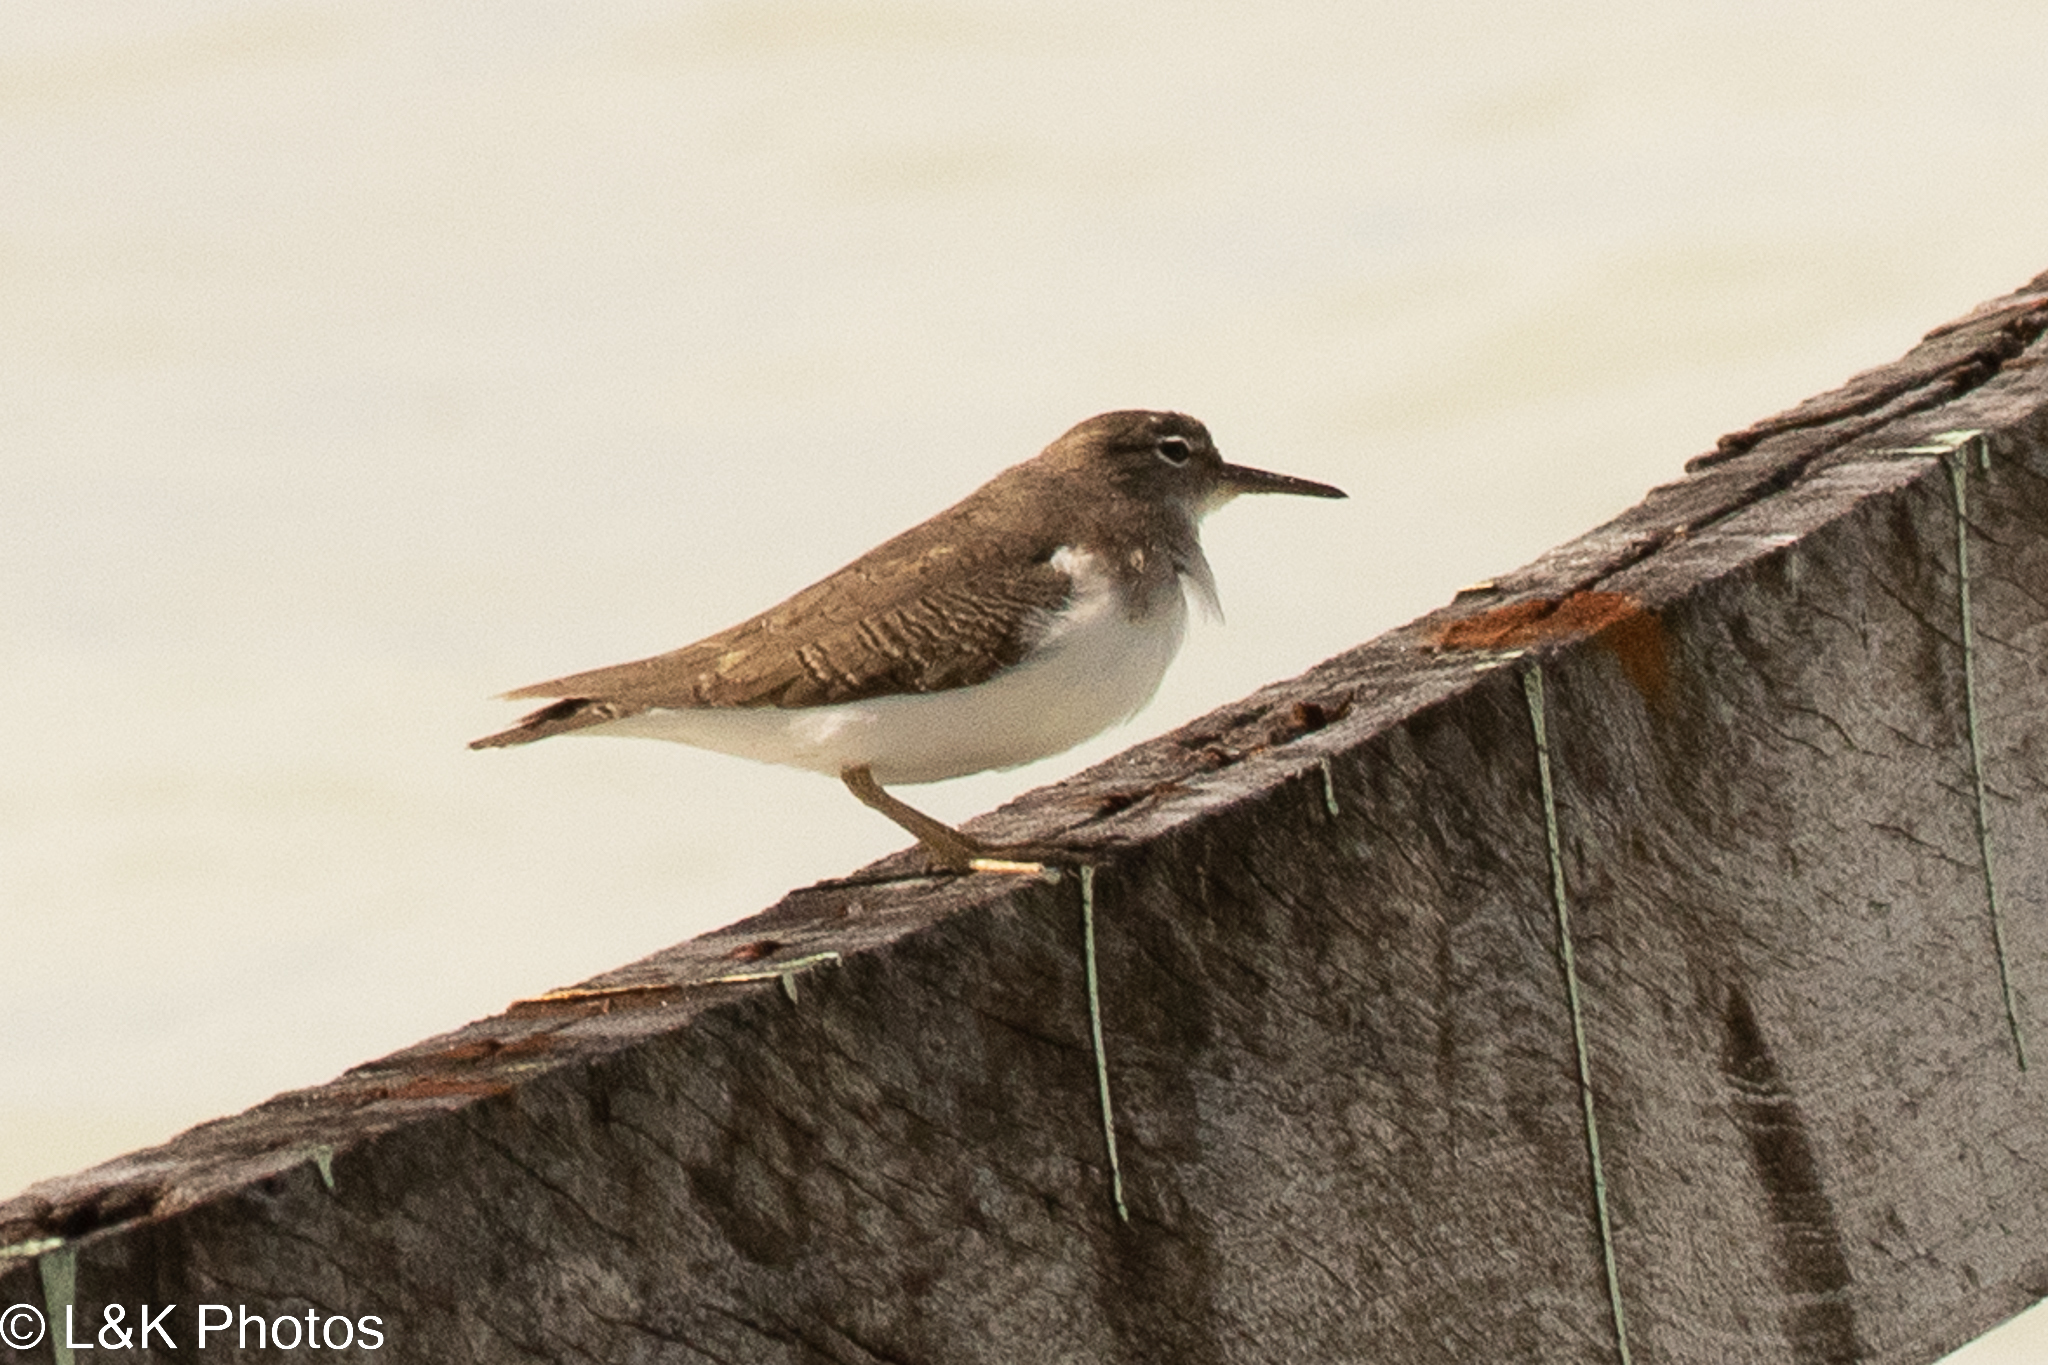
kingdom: Animalia
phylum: Chordata
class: Aves
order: Charadriiformes
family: Scolopacidae
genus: Actitis
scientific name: Actitis macularius
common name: Spotted sandpiper
